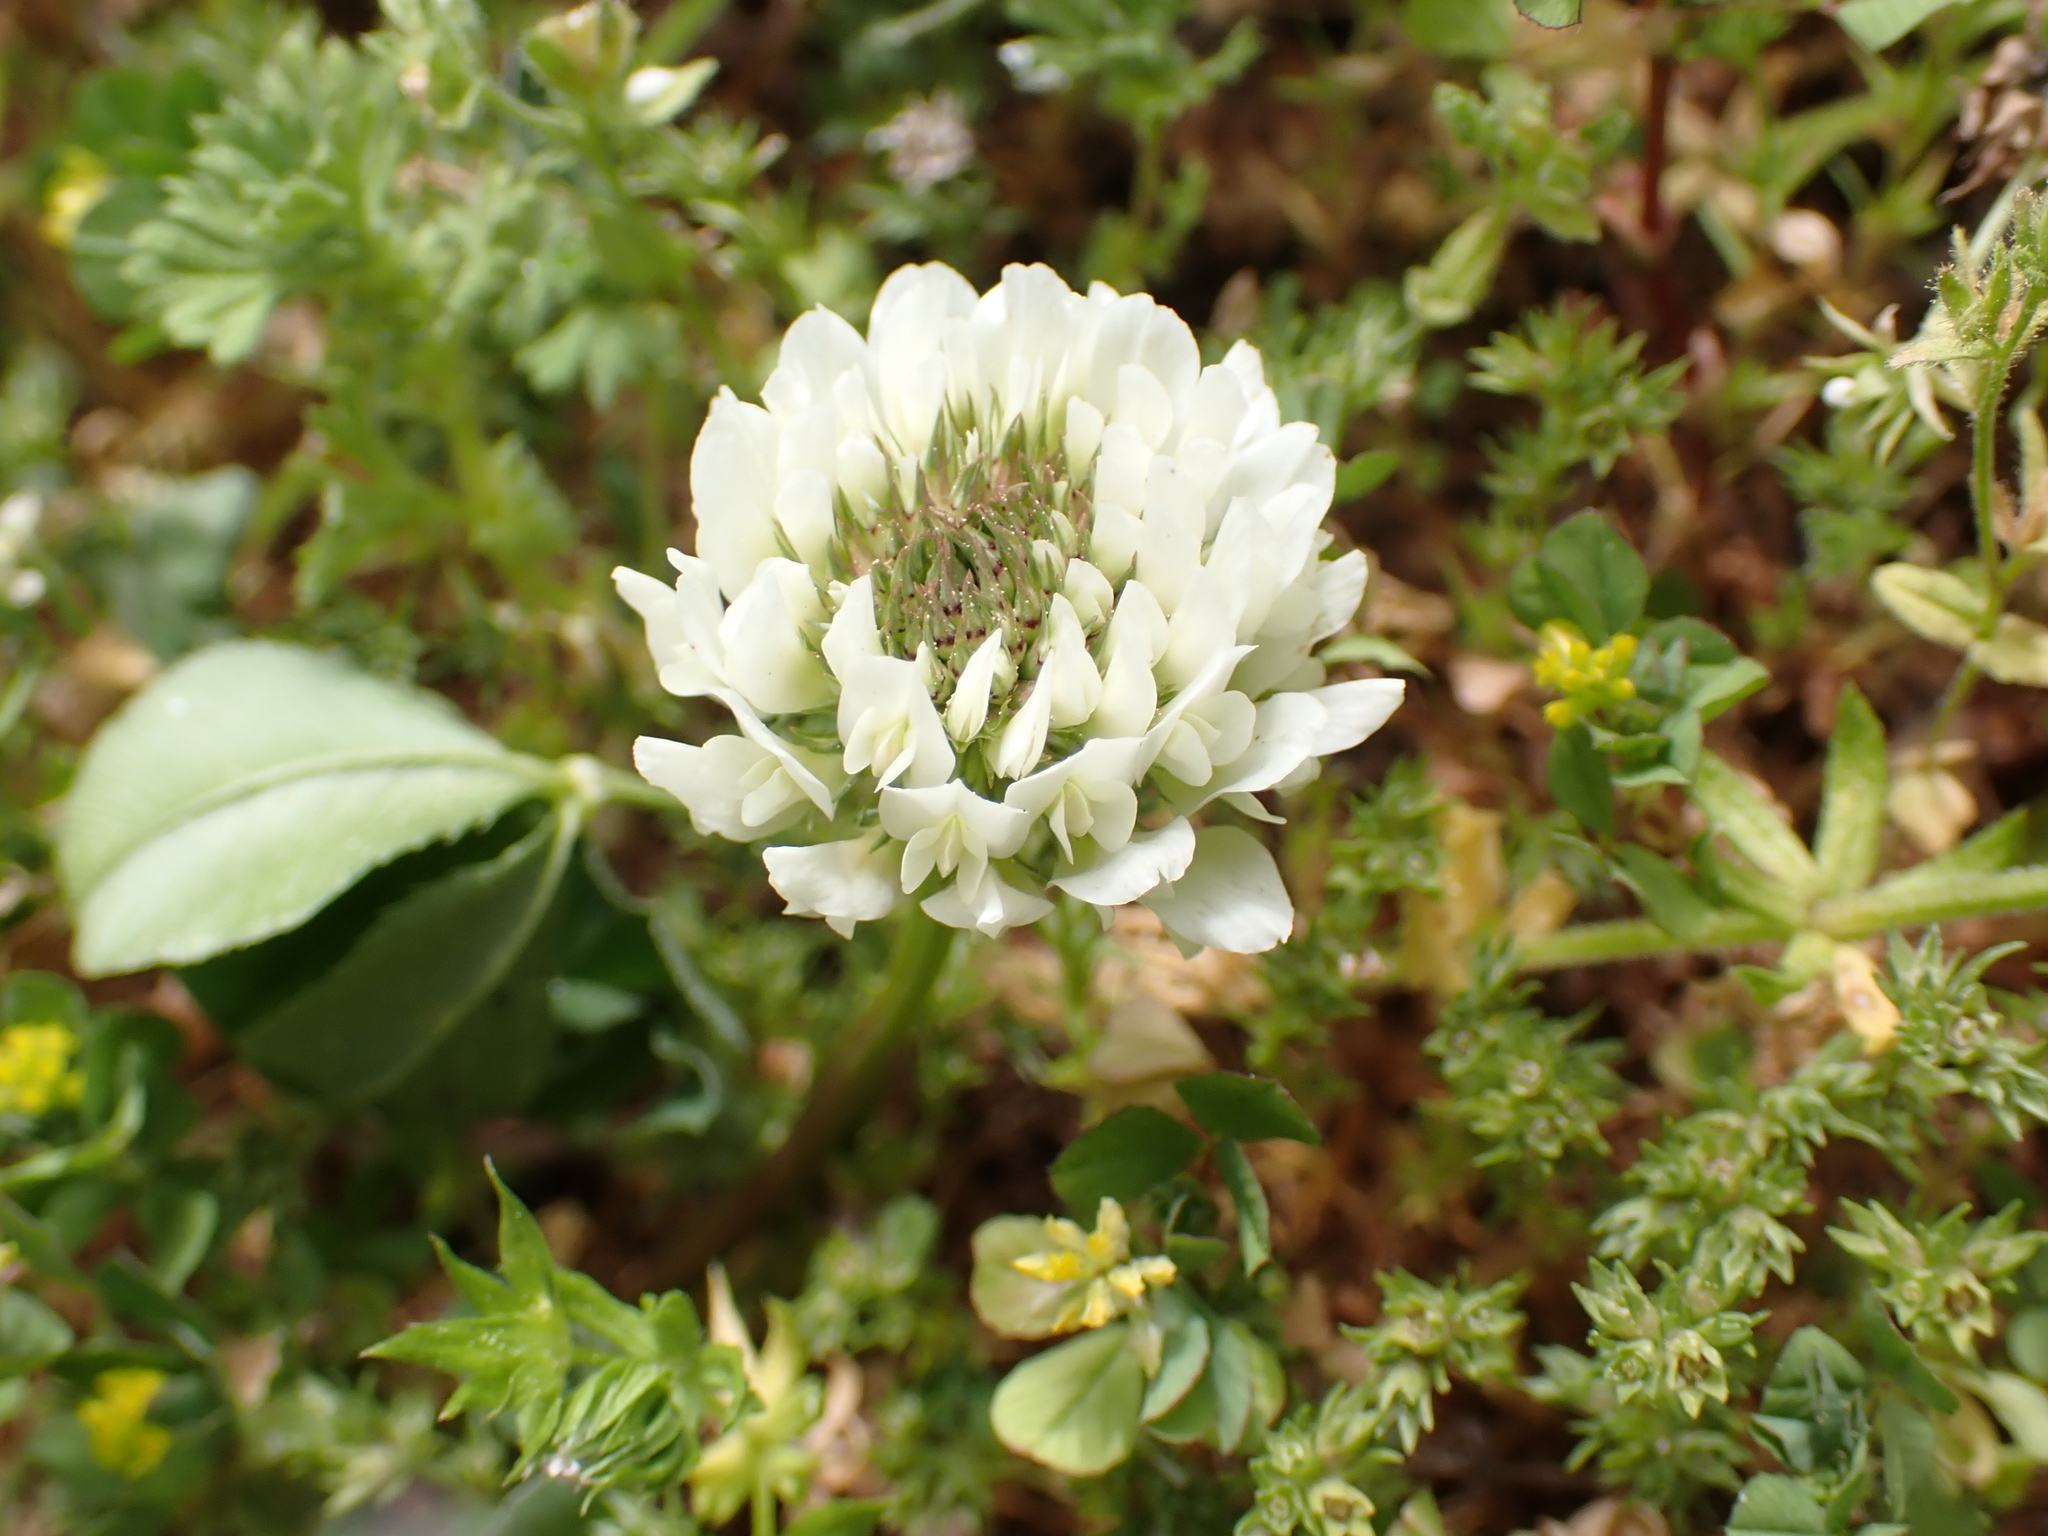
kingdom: Plantae
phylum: Tracheophyta
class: Magnoliopsida
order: Fabales
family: Fabaceae
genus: Trifolium
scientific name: Trifolium repens
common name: White clover
